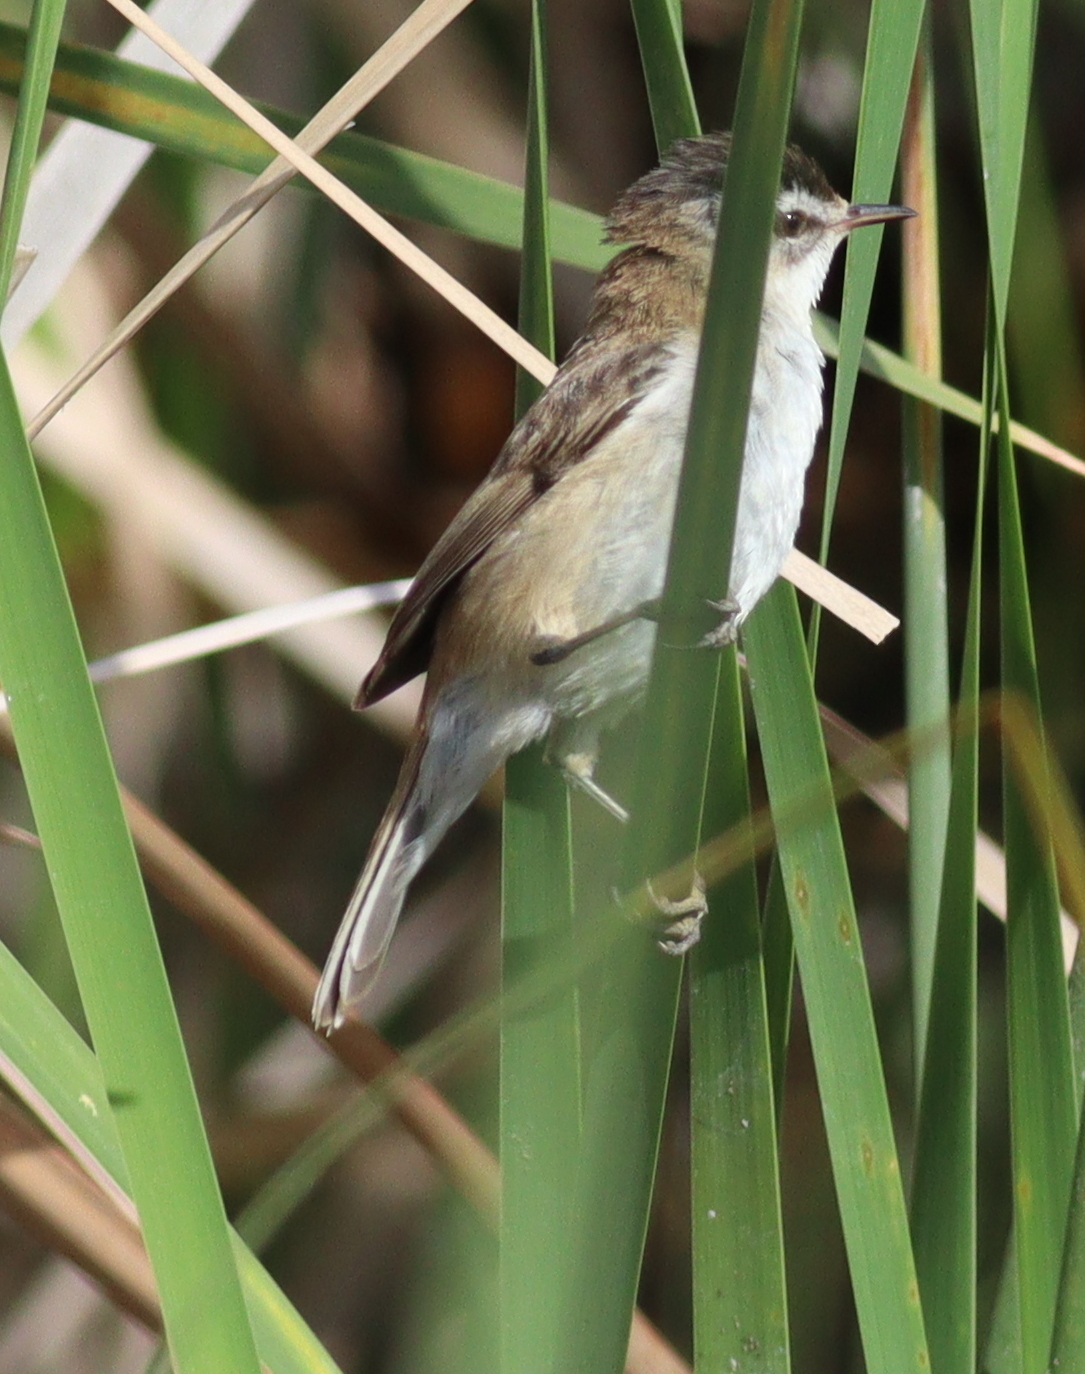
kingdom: Animalia
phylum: Chordata
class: Aves
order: Passeriformes
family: Acrocephalidae
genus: Acrocephalus
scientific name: Acrocephalus melanopogon
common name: Moustached warbler
